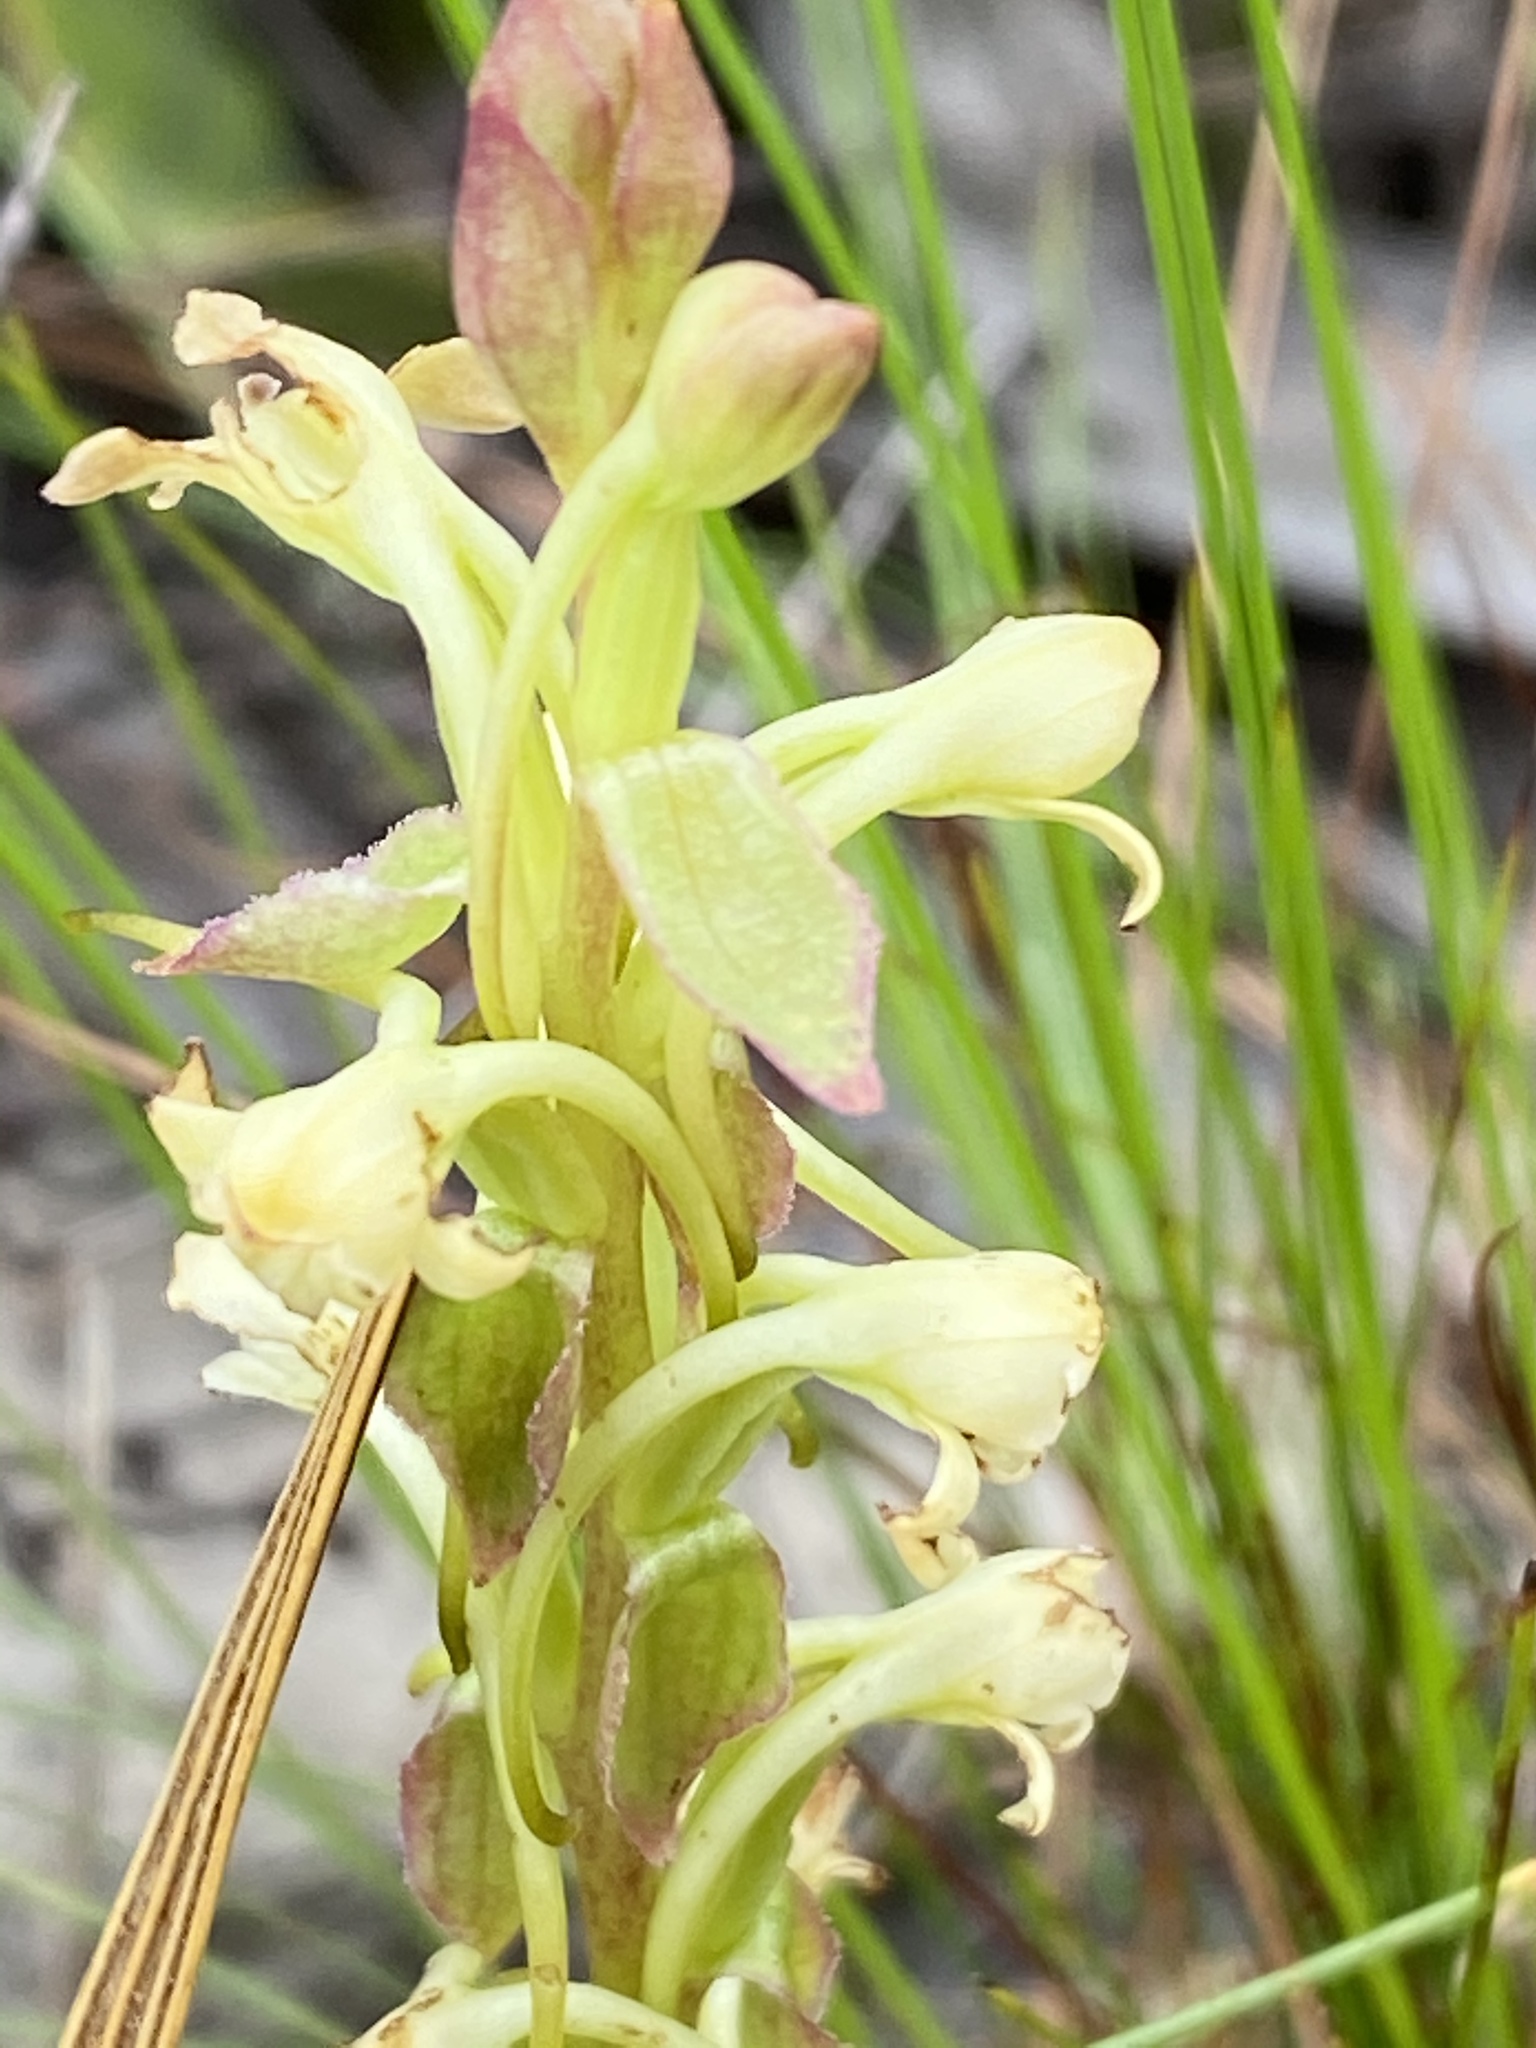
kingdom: Plantae
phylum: Tracheophyta
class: Liliopsida
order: Asparagales
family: Orchidaceae
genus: Satyrium
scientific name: Satyrium humile
